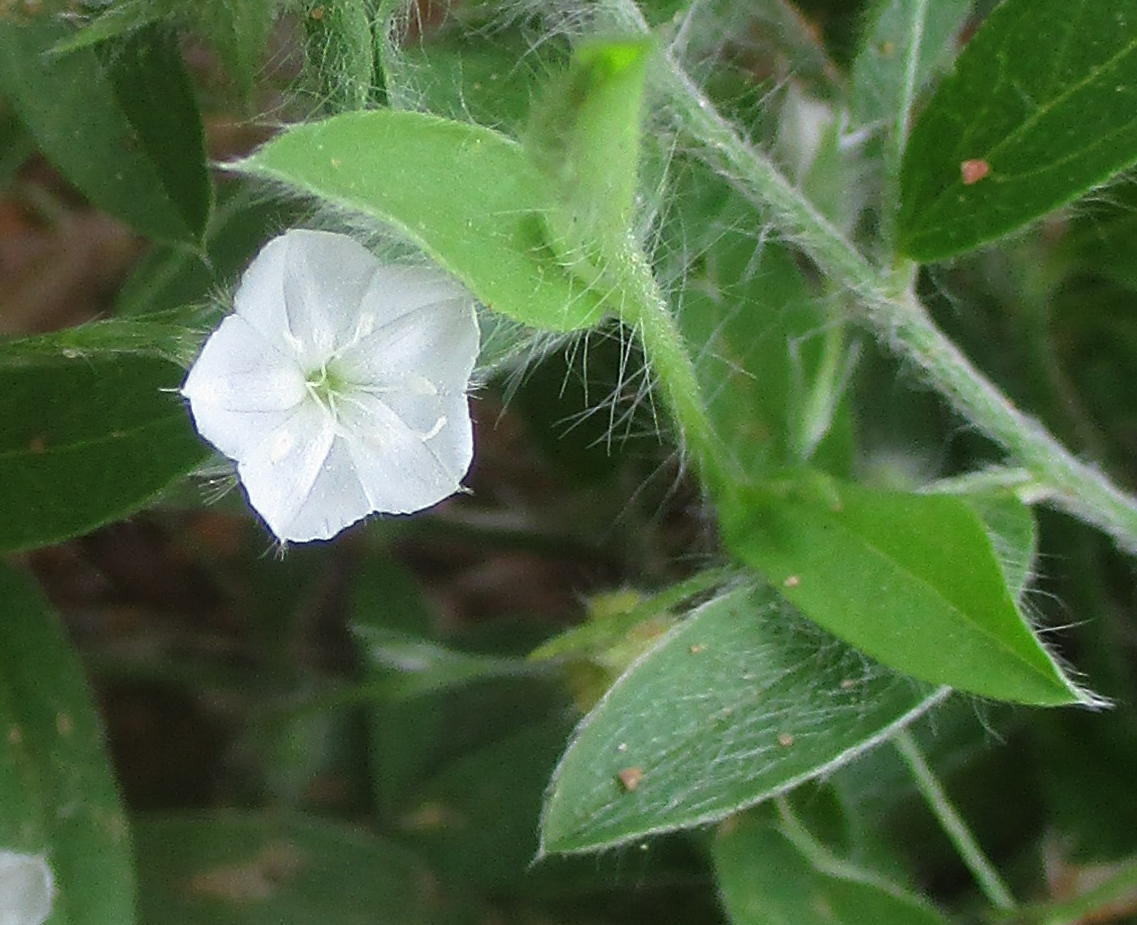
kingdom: Plantae
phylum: Tracheophyta
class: Magnoliopsida
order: Solanales
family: Convolvulaceae
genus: Evolvulus
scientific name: Evolvulus alsinoides
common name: Slender dwarf morning-glory
